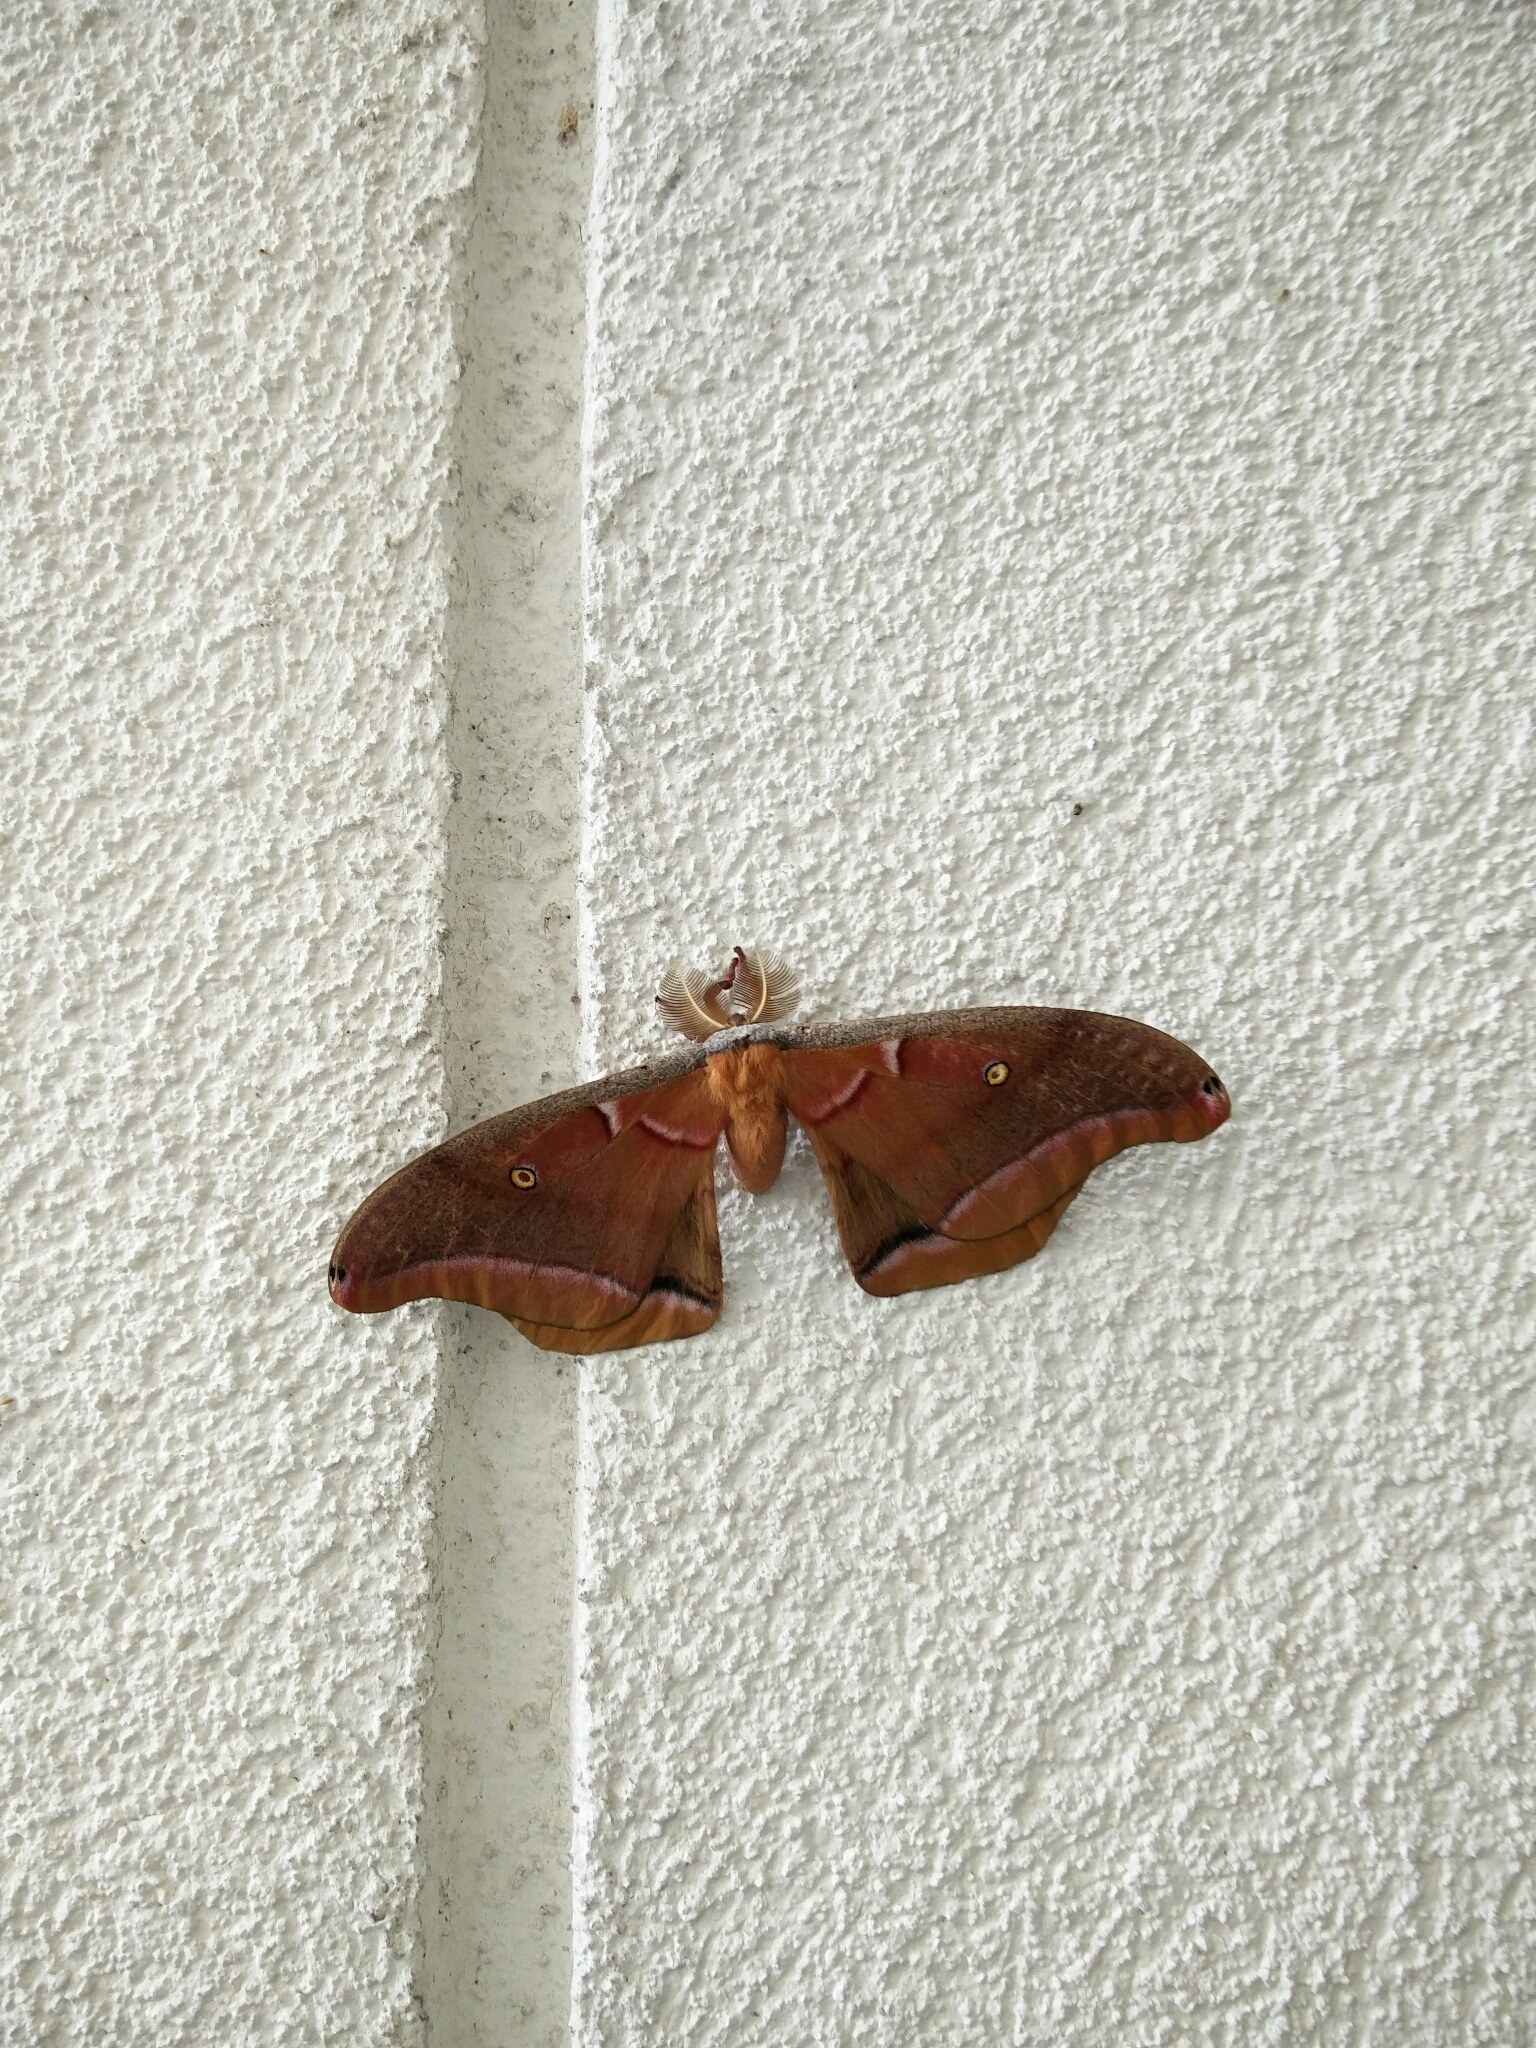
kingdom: Animalia
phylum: Arthropoda
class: Insecta
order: Lepidoptera
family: Saturniidae
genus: Antheraea
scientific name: Antheraea polyphemus
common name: Polyphemus moth
